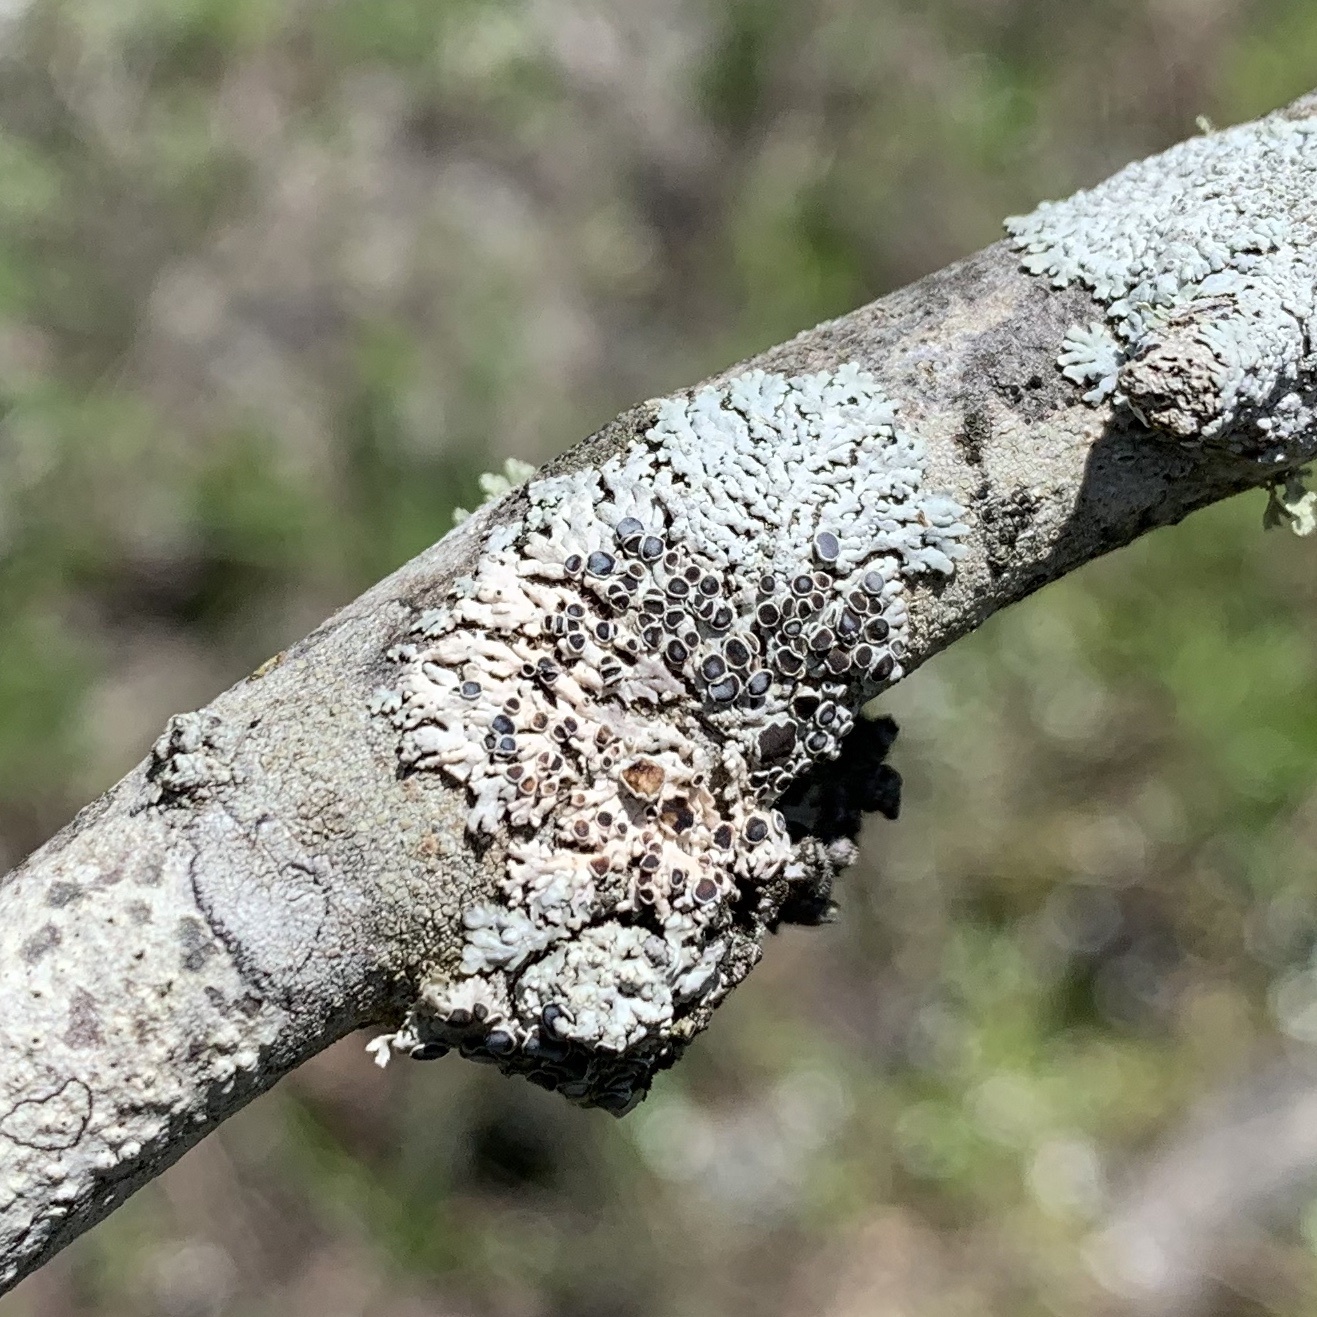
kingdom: Fungi
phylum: Ascomycota
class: Lecanoromycetes
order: Caliciales
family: Physciaceae
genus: Physcia
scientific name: Physcia pumilior
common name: Lesser gray legs
